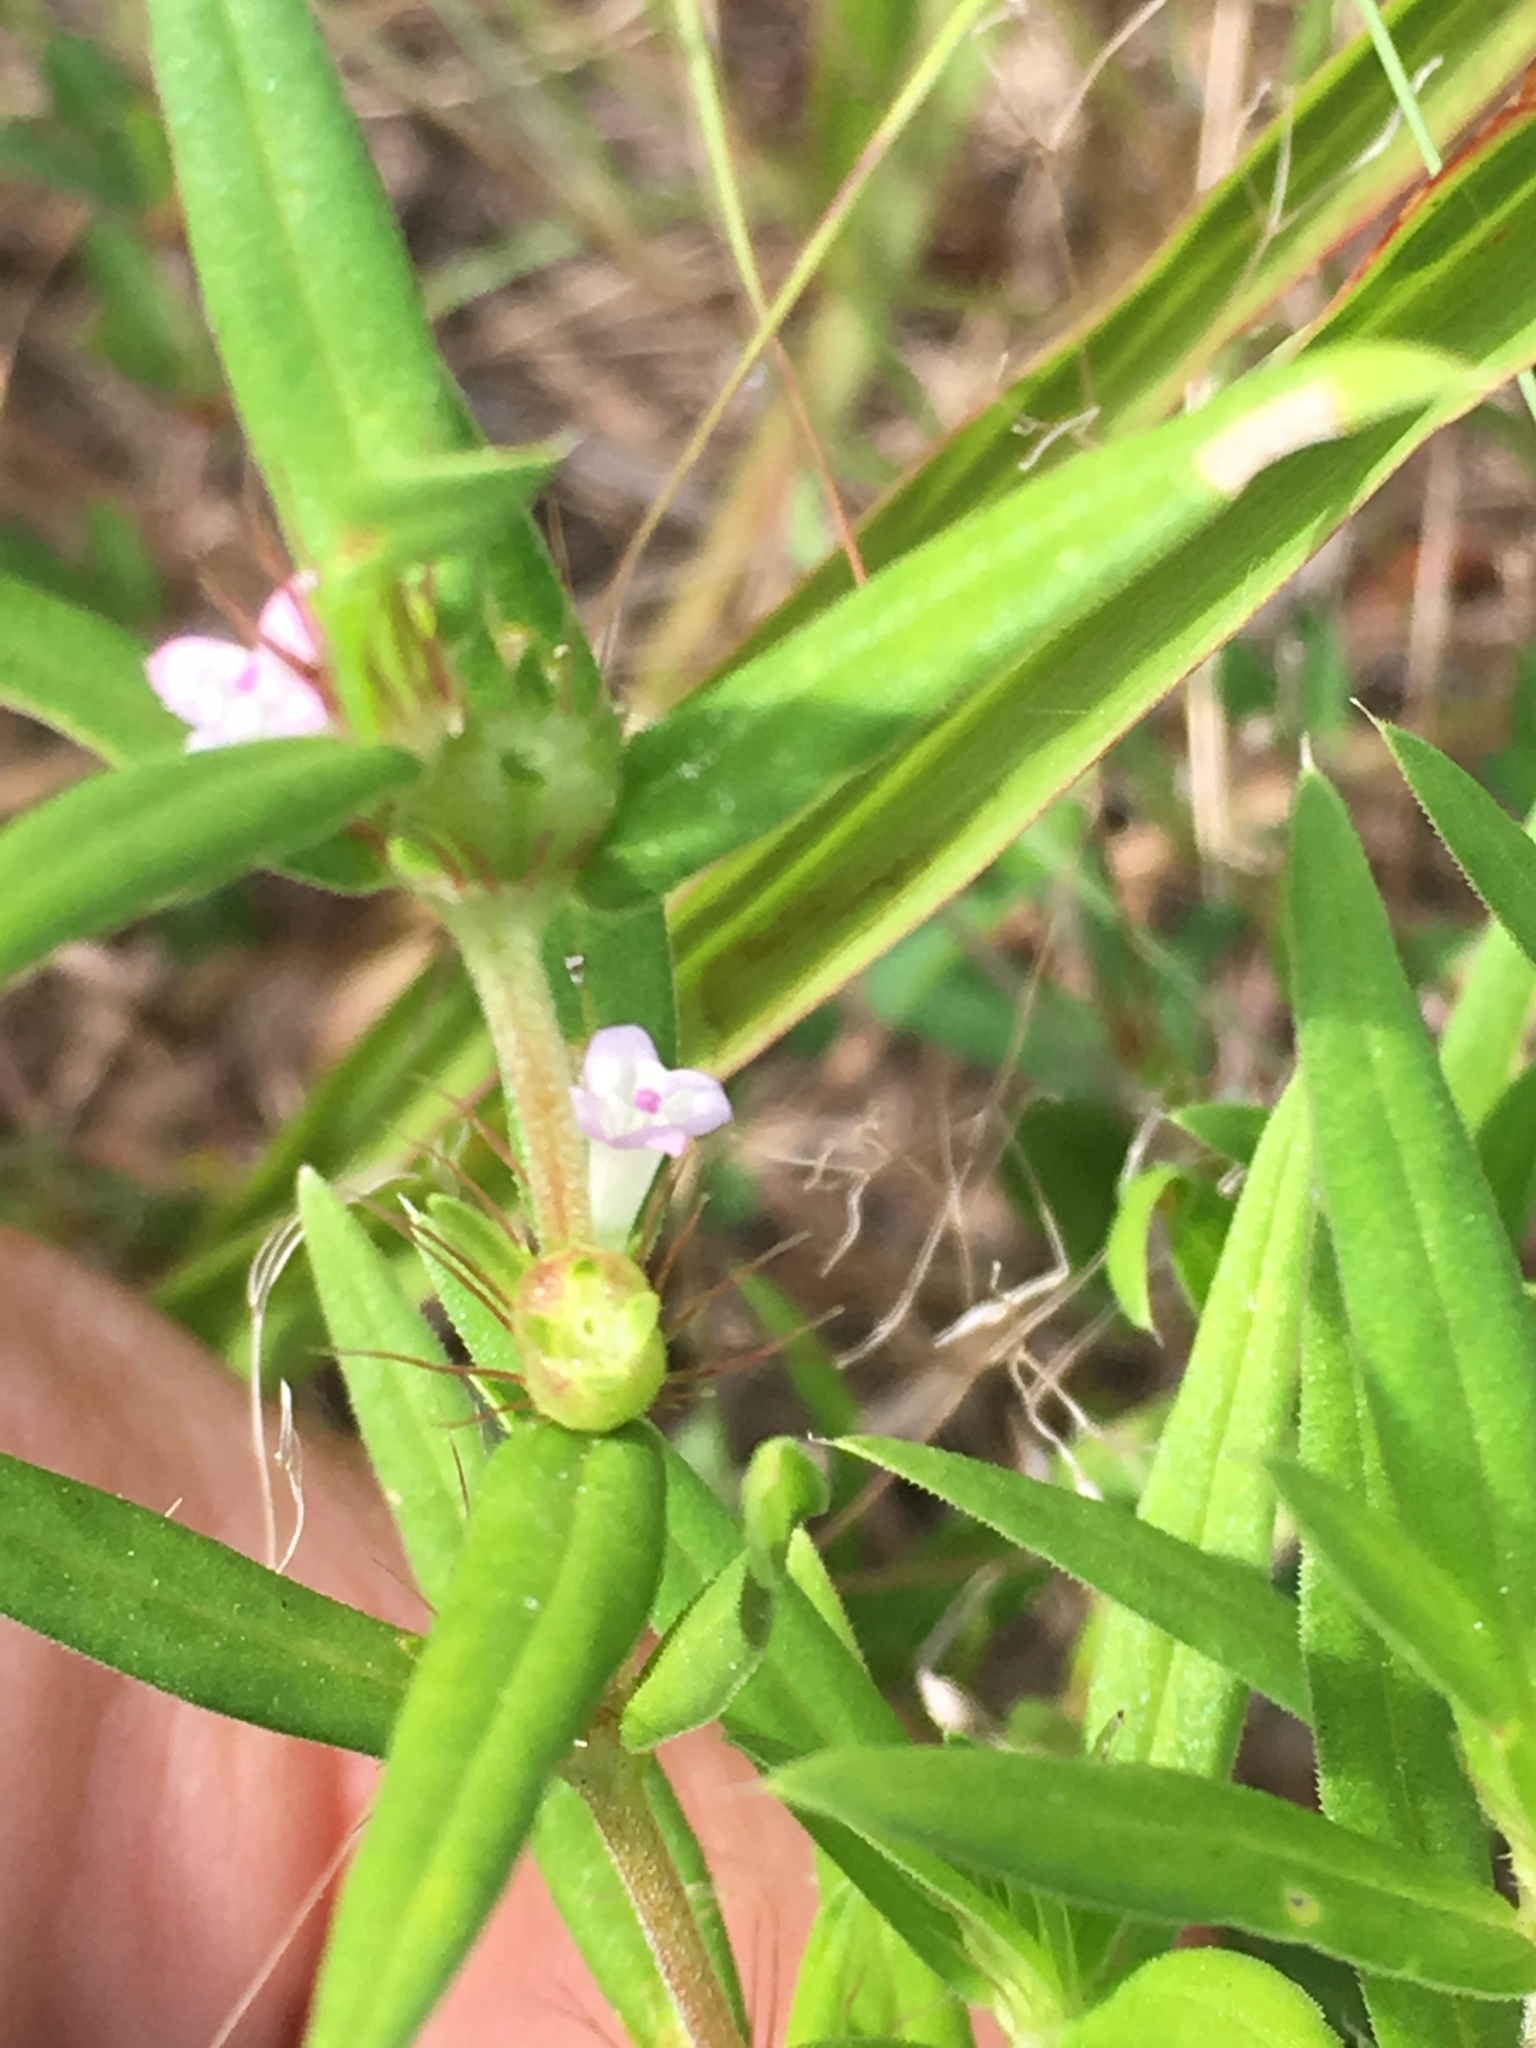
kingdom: Plantae
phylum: Tracheophyta
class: Magnoliopsida
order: Gentianales
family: Rubiaceae
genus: Hexasepalum
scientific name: Hexasepalum teres
